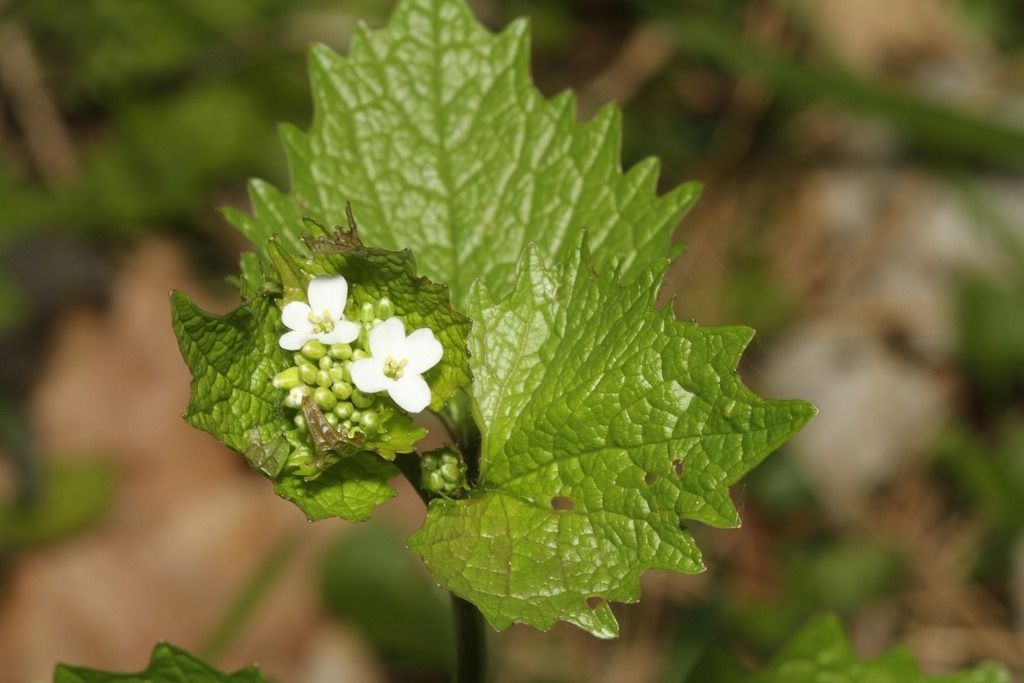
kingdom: Plantae
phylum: Tracheophyta
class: Magnoliopsida
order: Brassicales
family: Brassicaceae
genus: Alliaria
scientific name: Alliaria petiolata
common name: Garlic mustard
